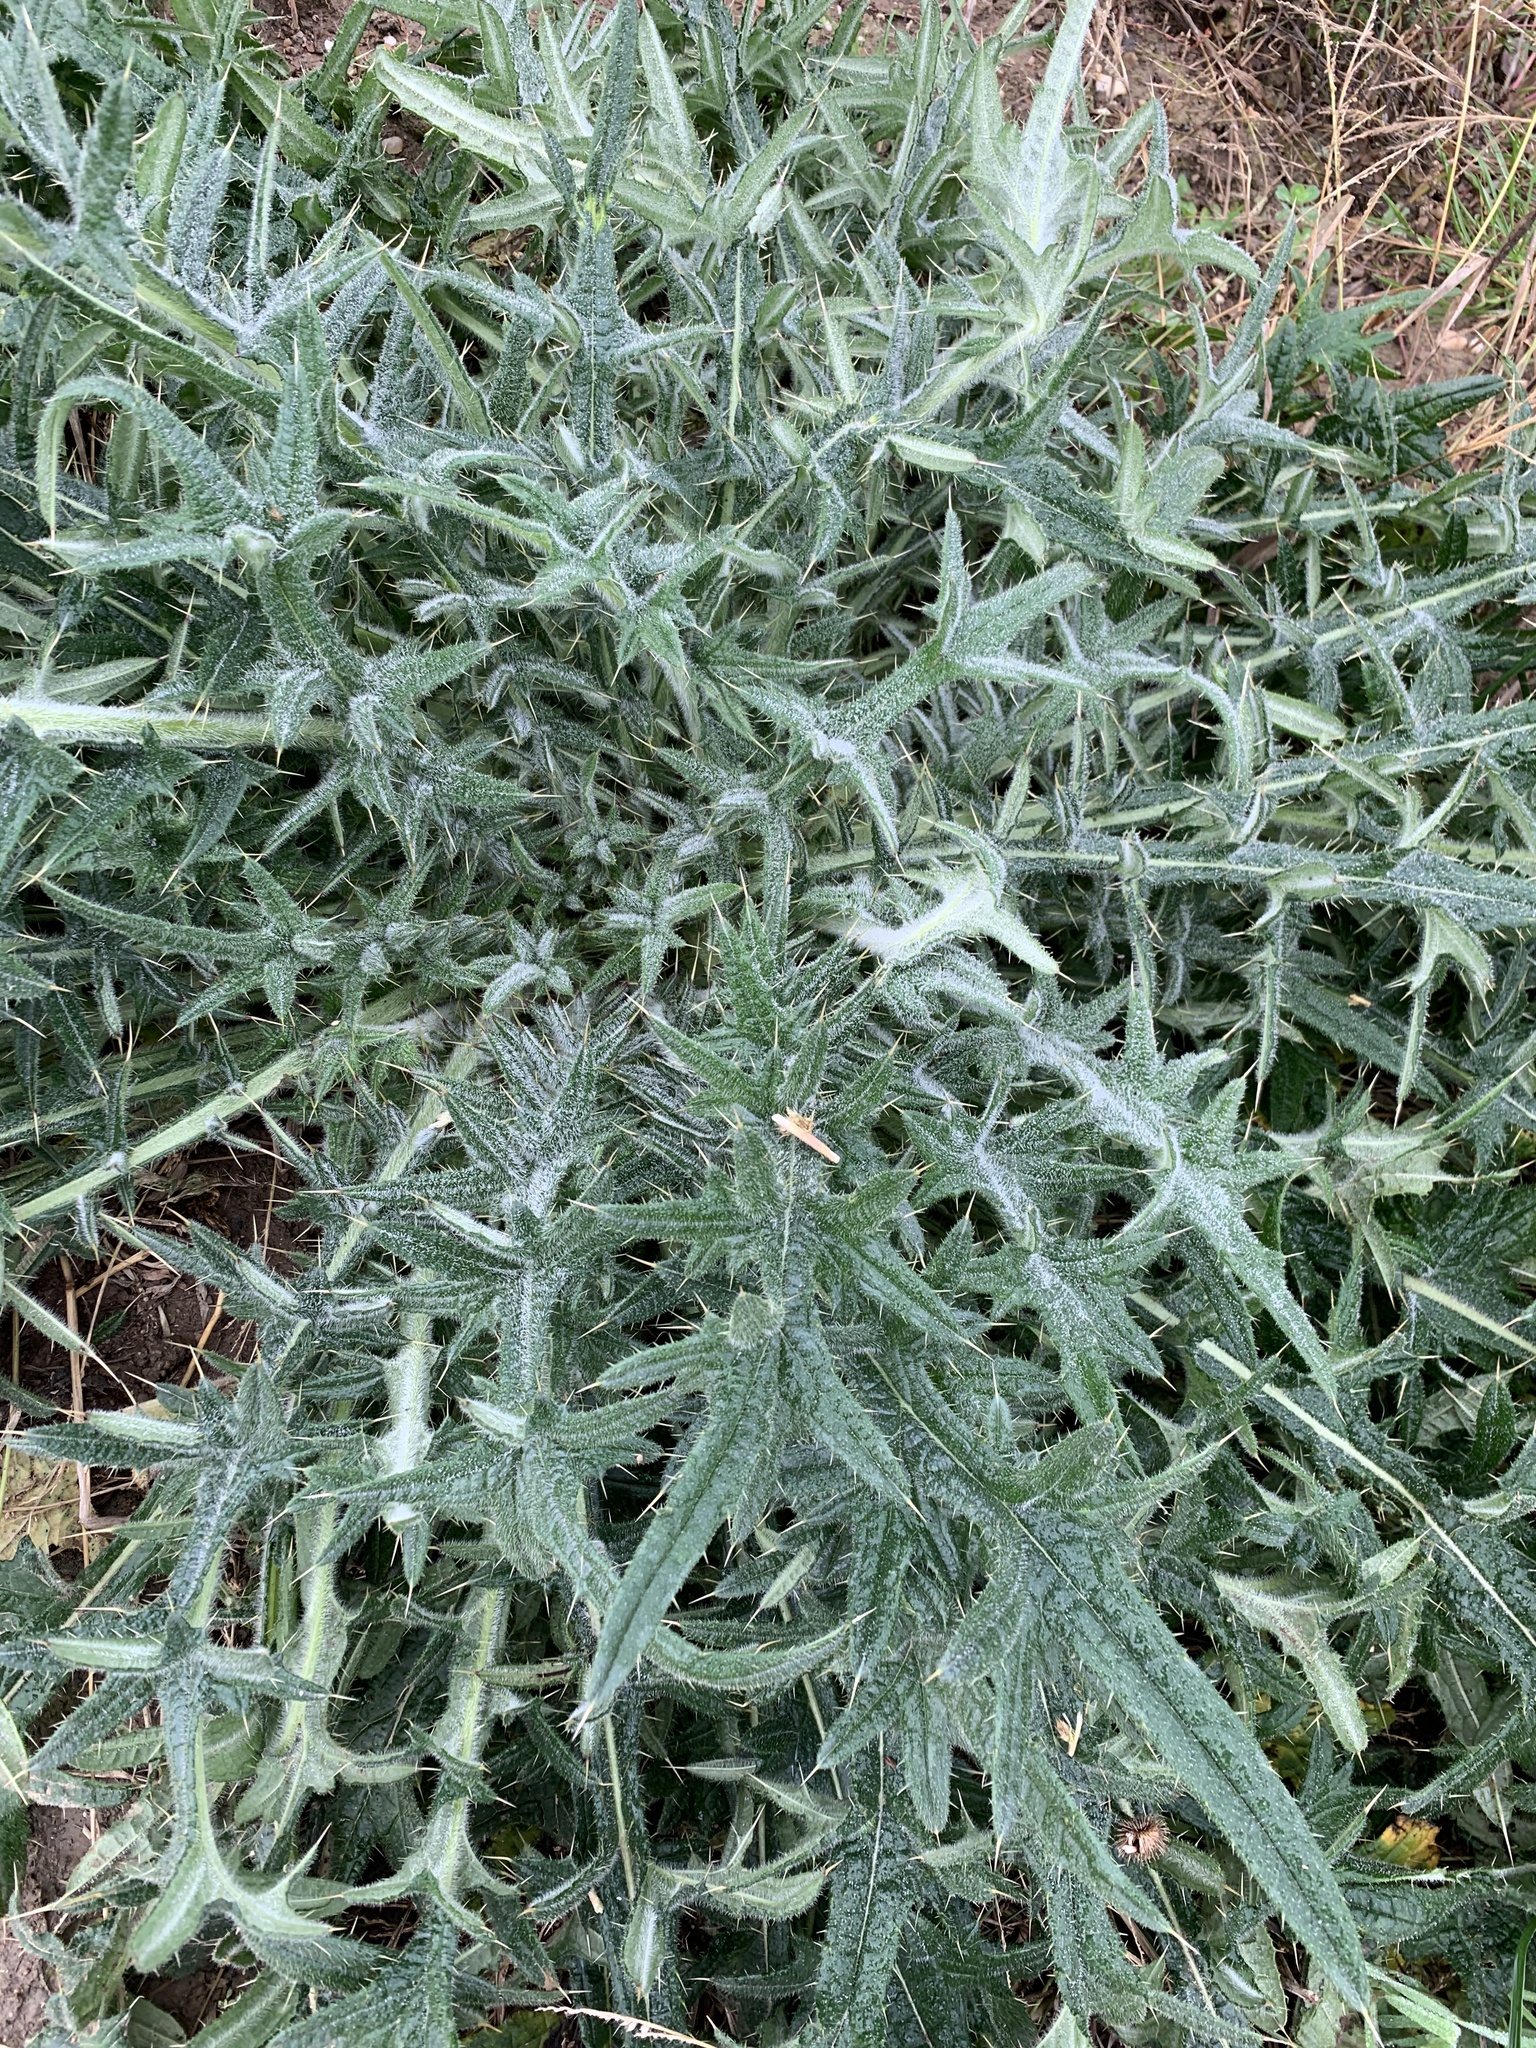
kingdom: Plantae
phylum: Tracheophyta
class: Magnoliopsida
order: Asterales
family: Asteraceae
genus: Cirsium
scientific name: Cirsium vulgare
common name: Bull thistle
